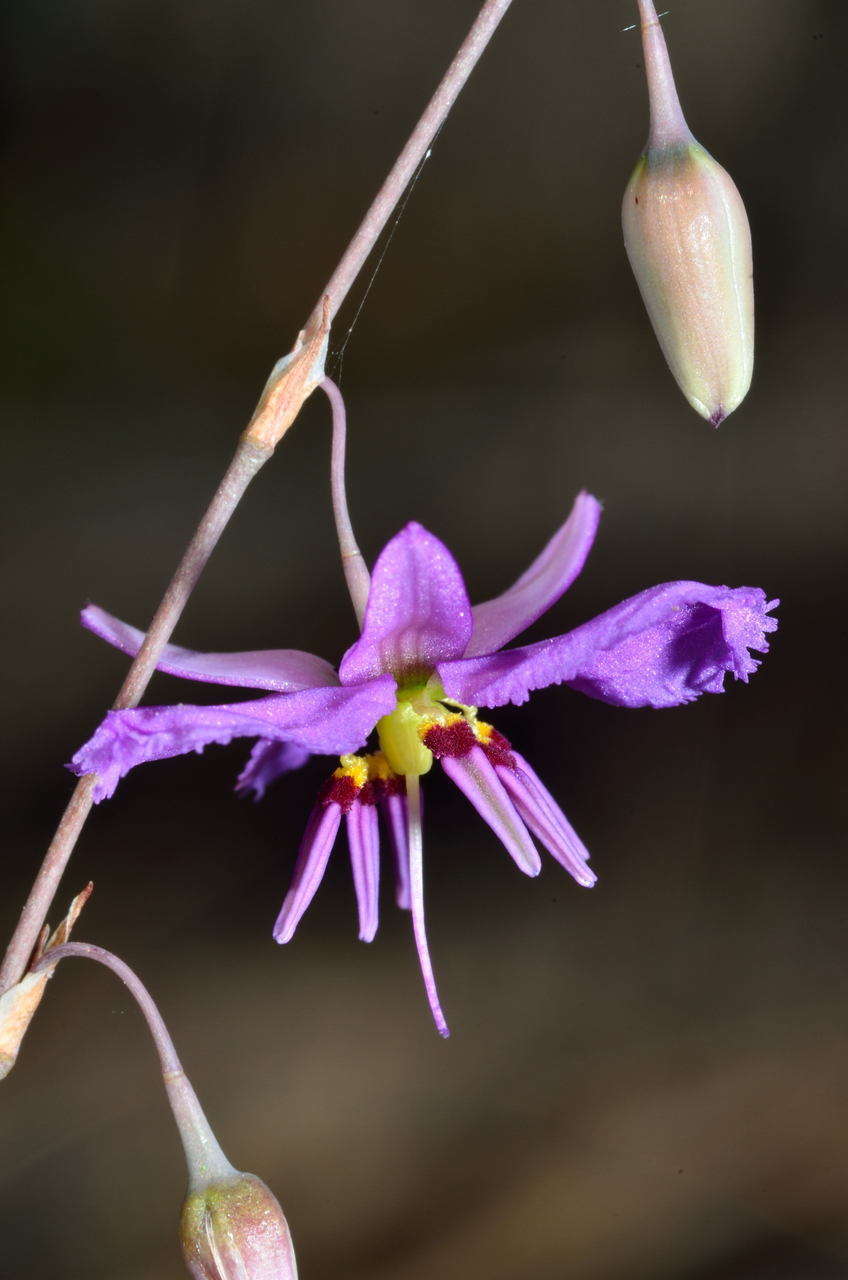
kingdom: Plantae
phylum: Tracheophyta
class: Liliopsida
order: Asparagales
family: Asparagaceae
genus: Dichopogon
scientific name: Dichopogon fimbriatus
